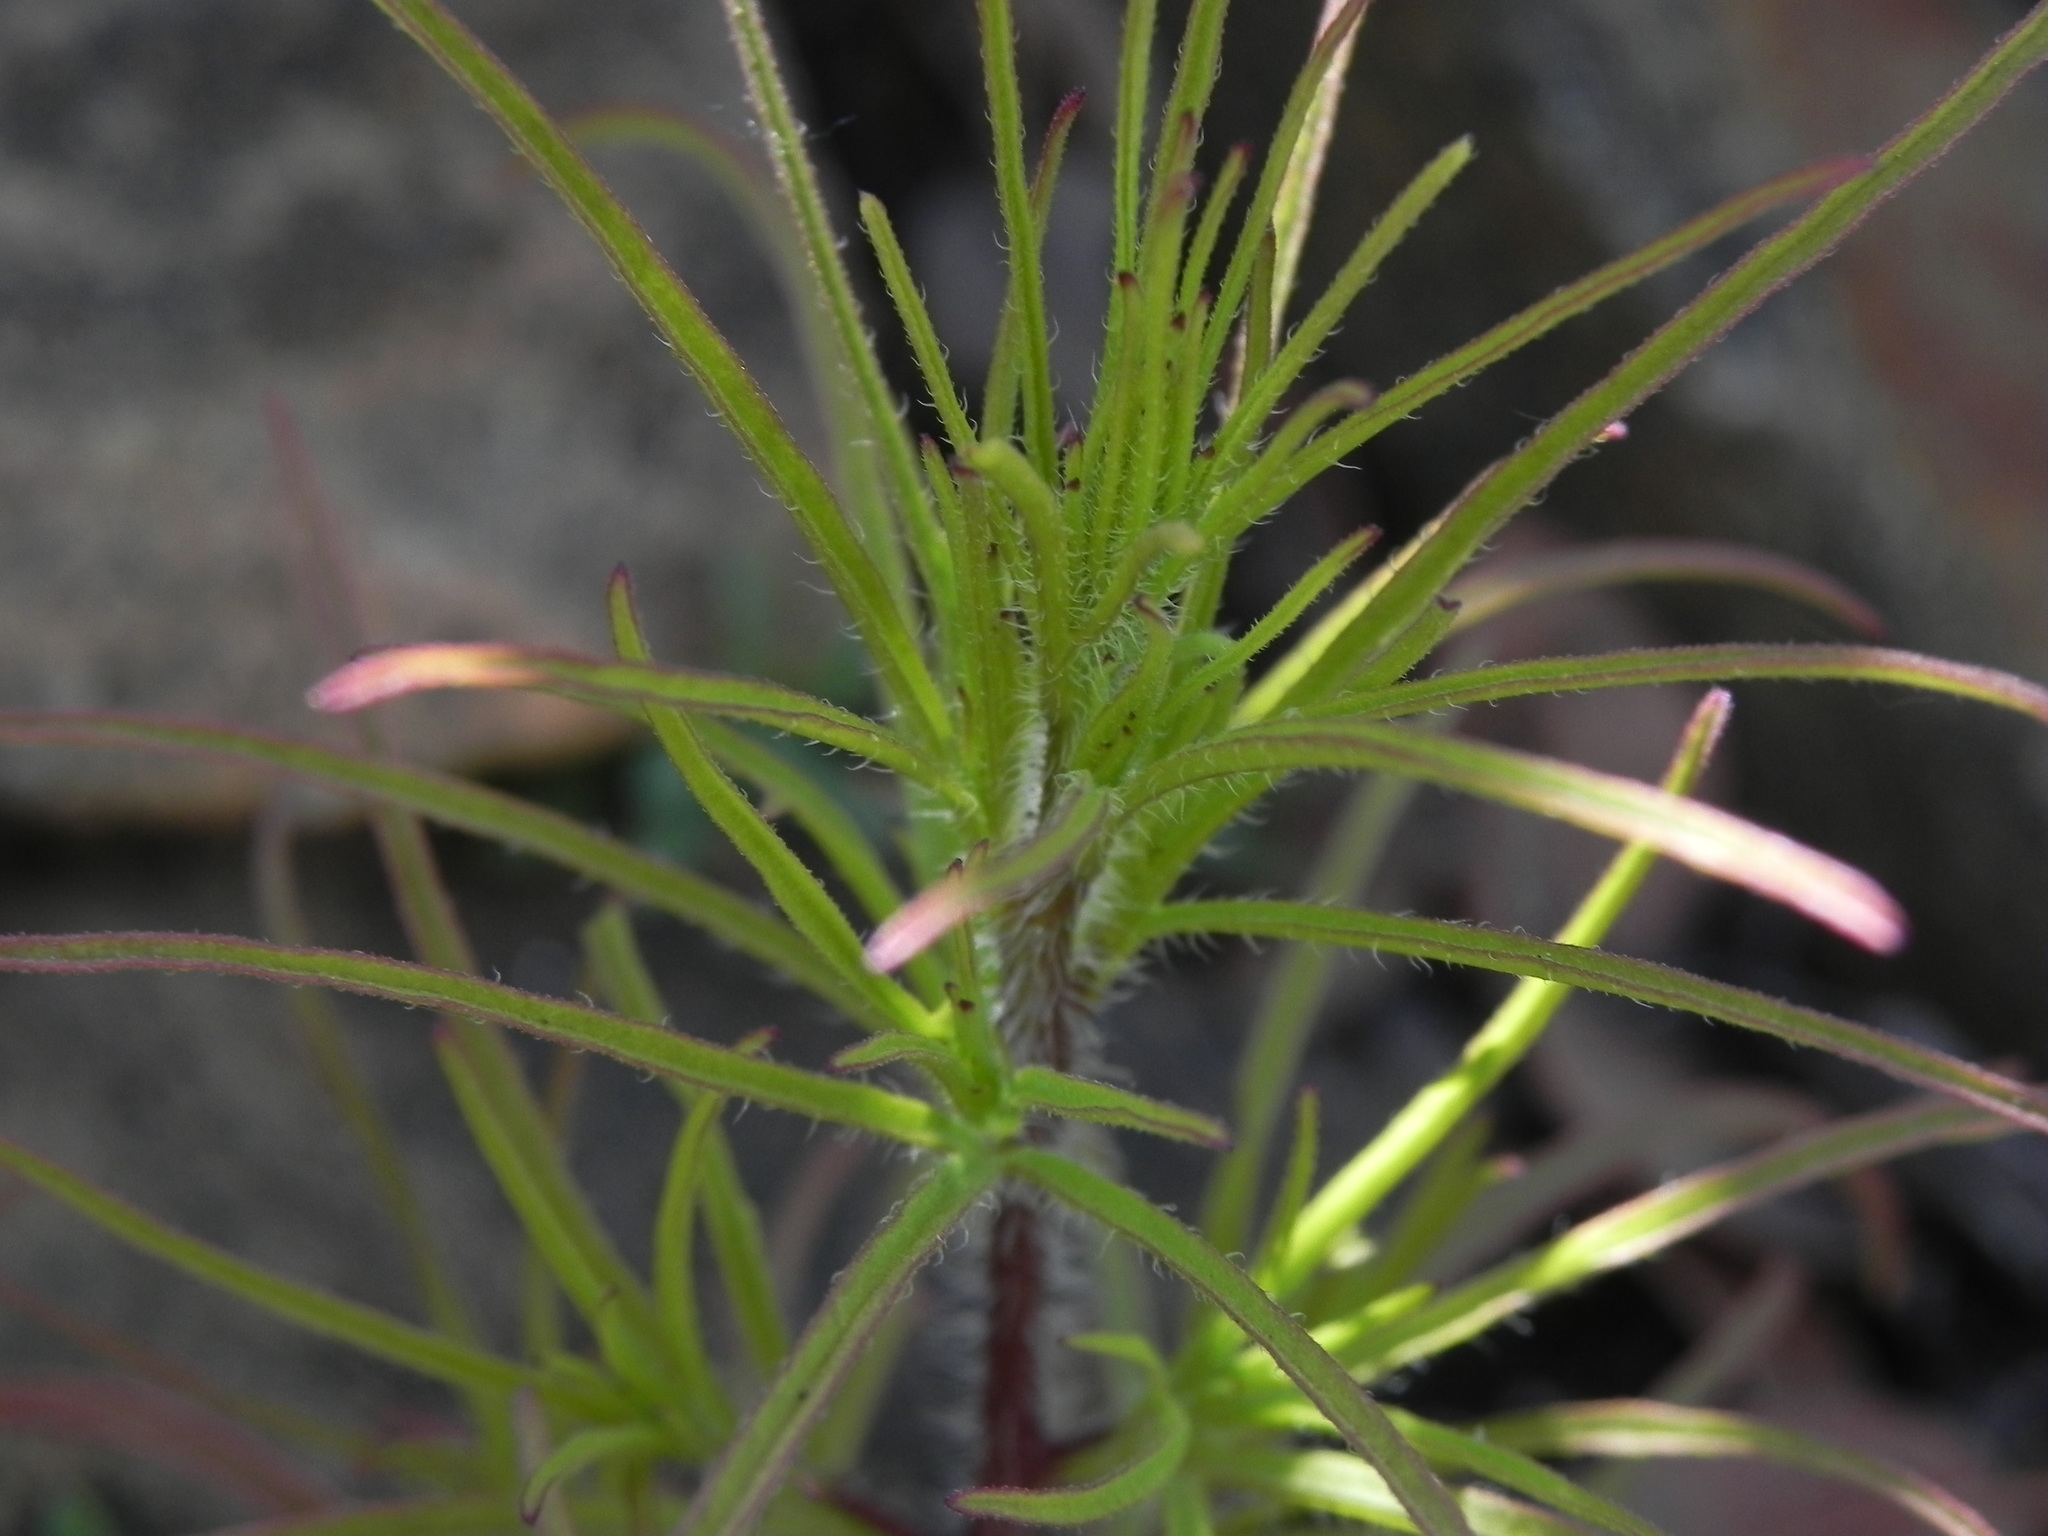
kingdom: Plantae
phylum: Tracheophyta
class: Magnoliopsida
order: Lamiales
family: Orobanchaceae
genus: Cordylanthus
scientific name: Cordylanthus rigidus
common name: Stiff-branch bird's-beak
